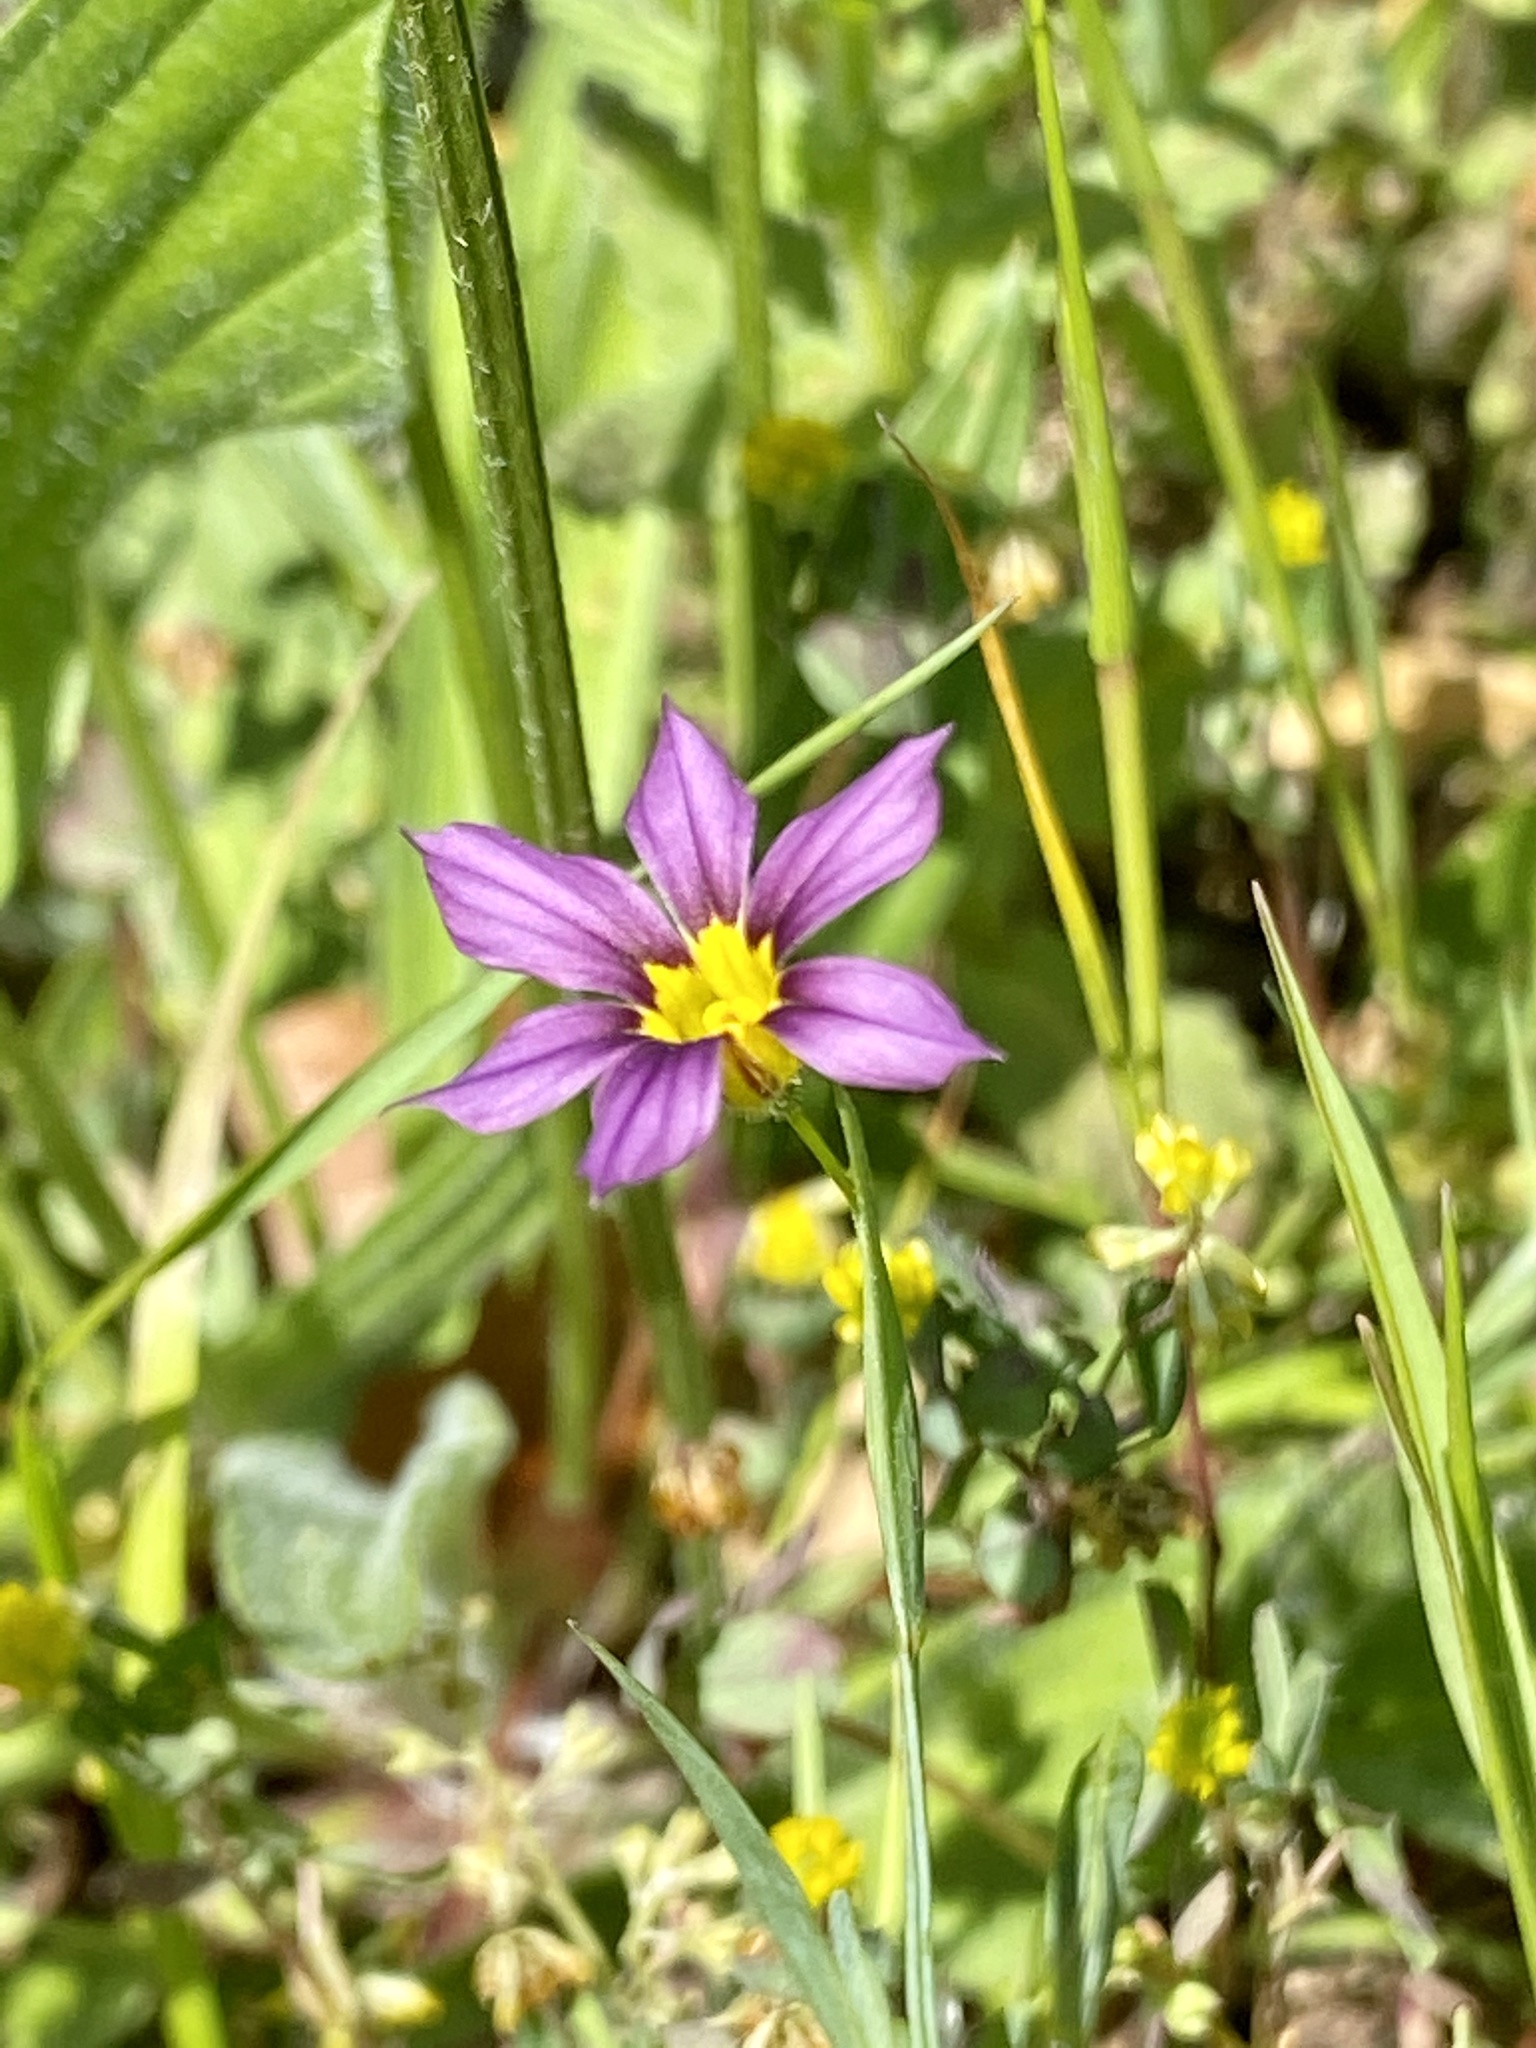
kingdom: Plantae
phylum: Tracheophyta
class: Liliopsida
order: Asparagales
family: Iridaceae
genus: Sisyrinchium
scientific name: Sisyrinchium micranthum
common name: Bermuda pigroot
